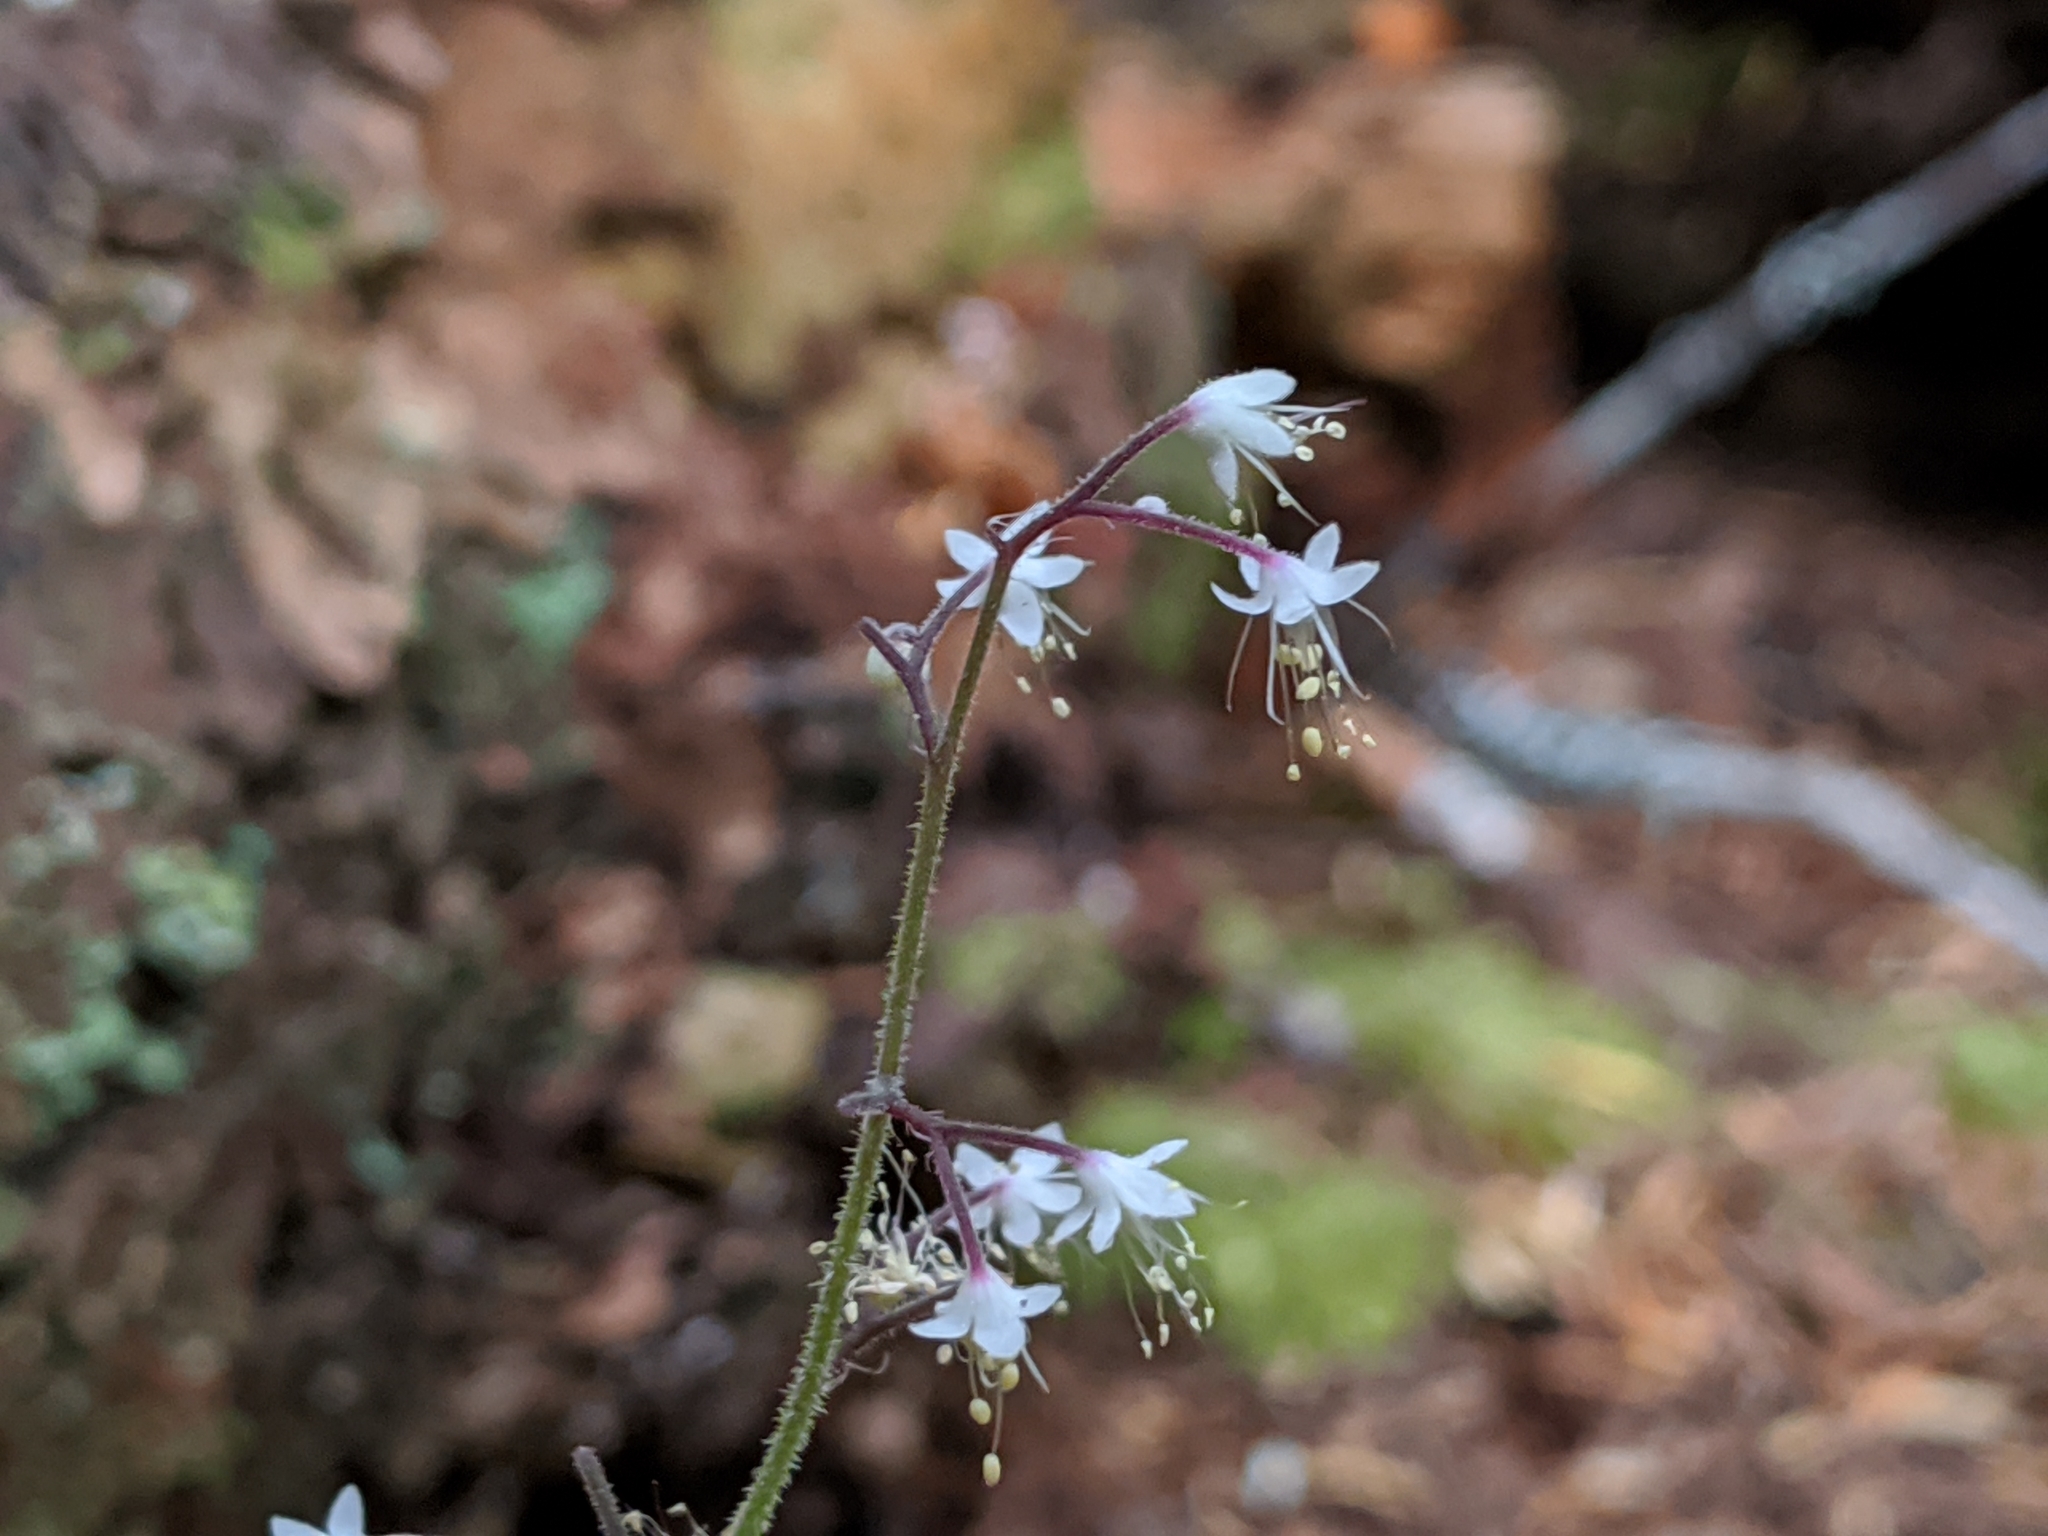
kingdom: Plantae
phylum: Tracheophyta
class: Magnoliopsida
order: Saxifragales
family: Saxifragaceae
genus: Tiarella
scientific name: Tiarella trifoliata
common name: Sugar-scoop
